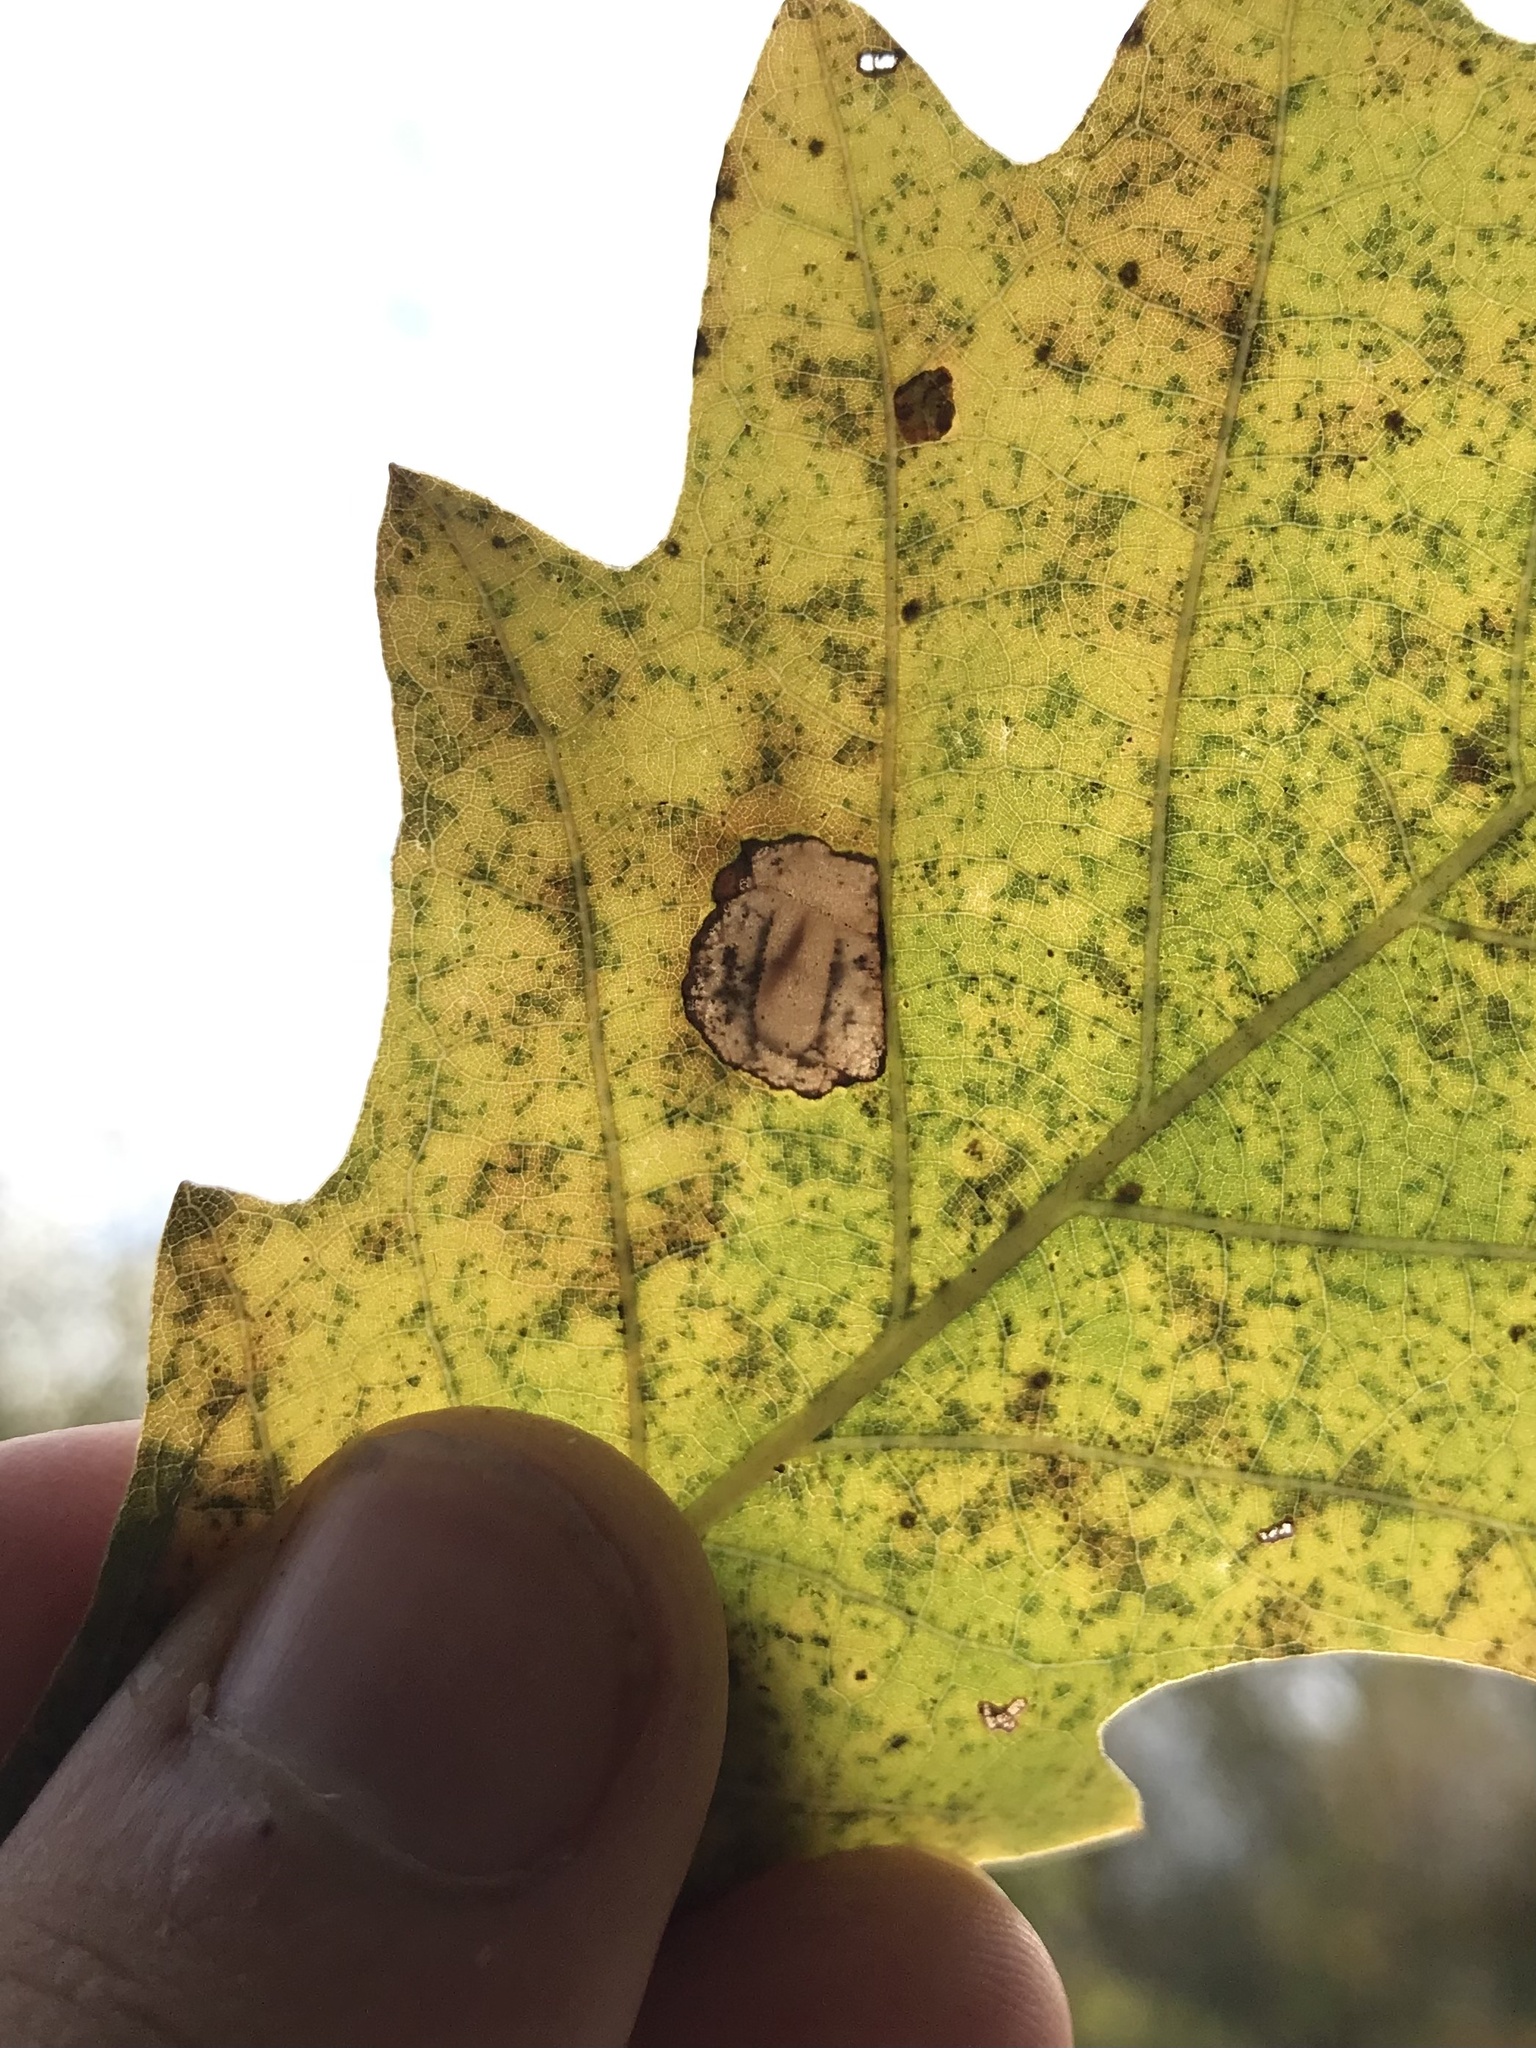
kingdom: Animalia
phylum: Arthropoda
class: Insecta
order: Lepidoptera
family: Gracillariidae
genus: Phyllonorycter
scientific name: Phyllonorycter diaphanella
